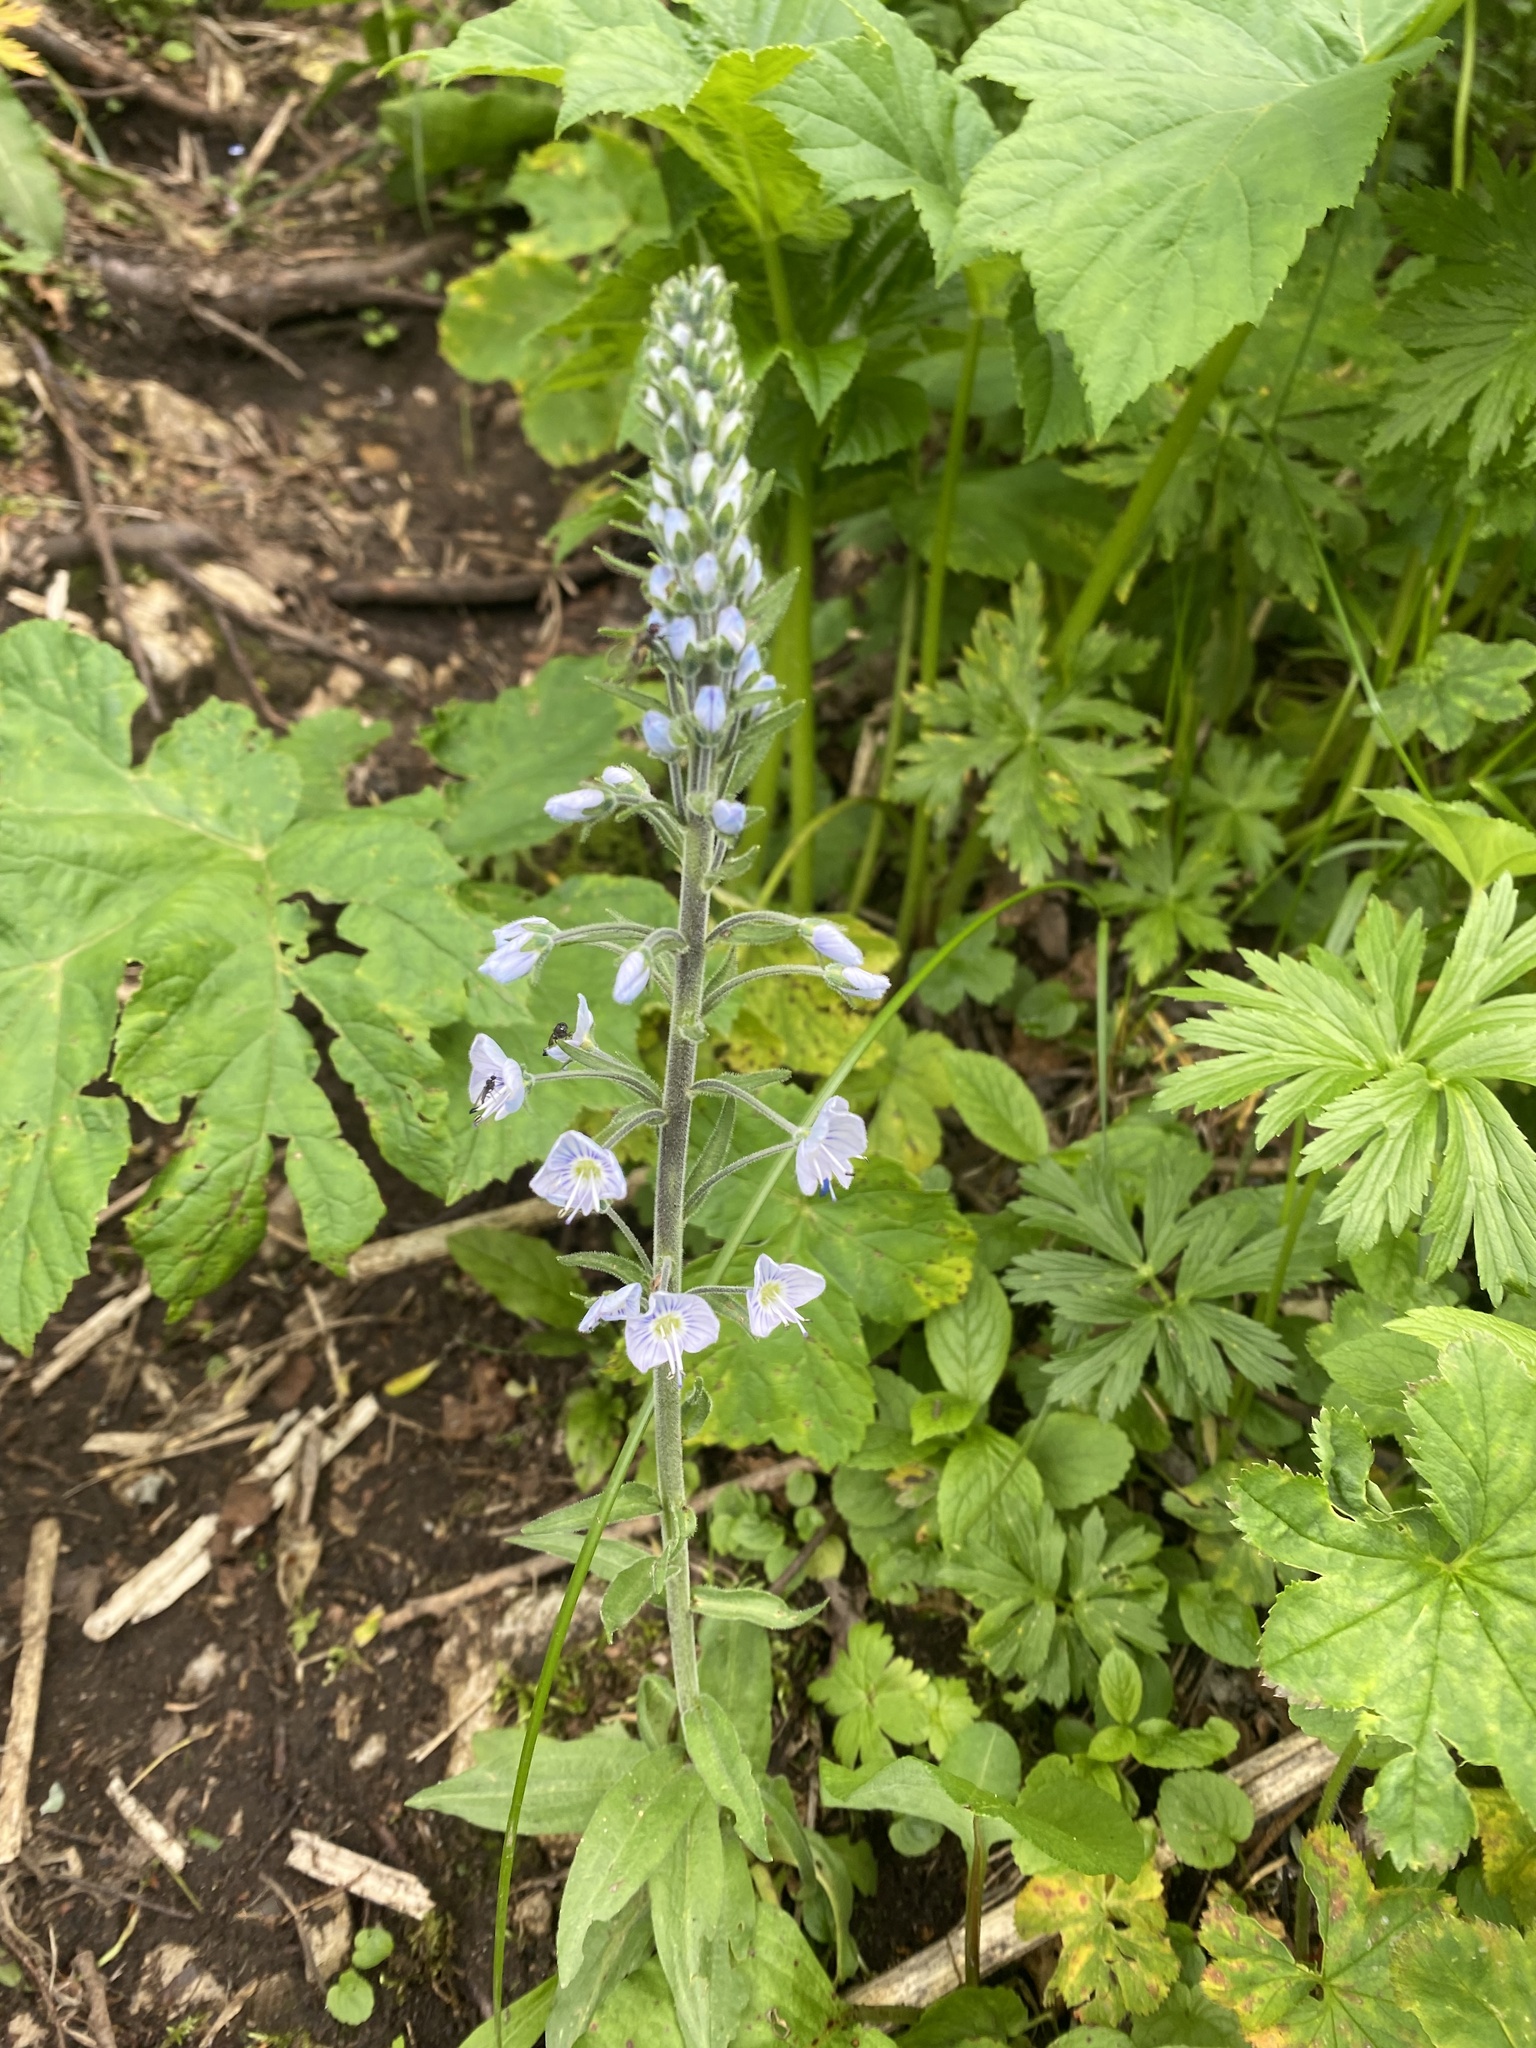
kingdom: Plantae
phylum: Tracheophyta
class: Magnoliopsida
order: Lamiales
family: Plantaginaceae
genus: Veronica
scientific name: Veronica gentianoides
